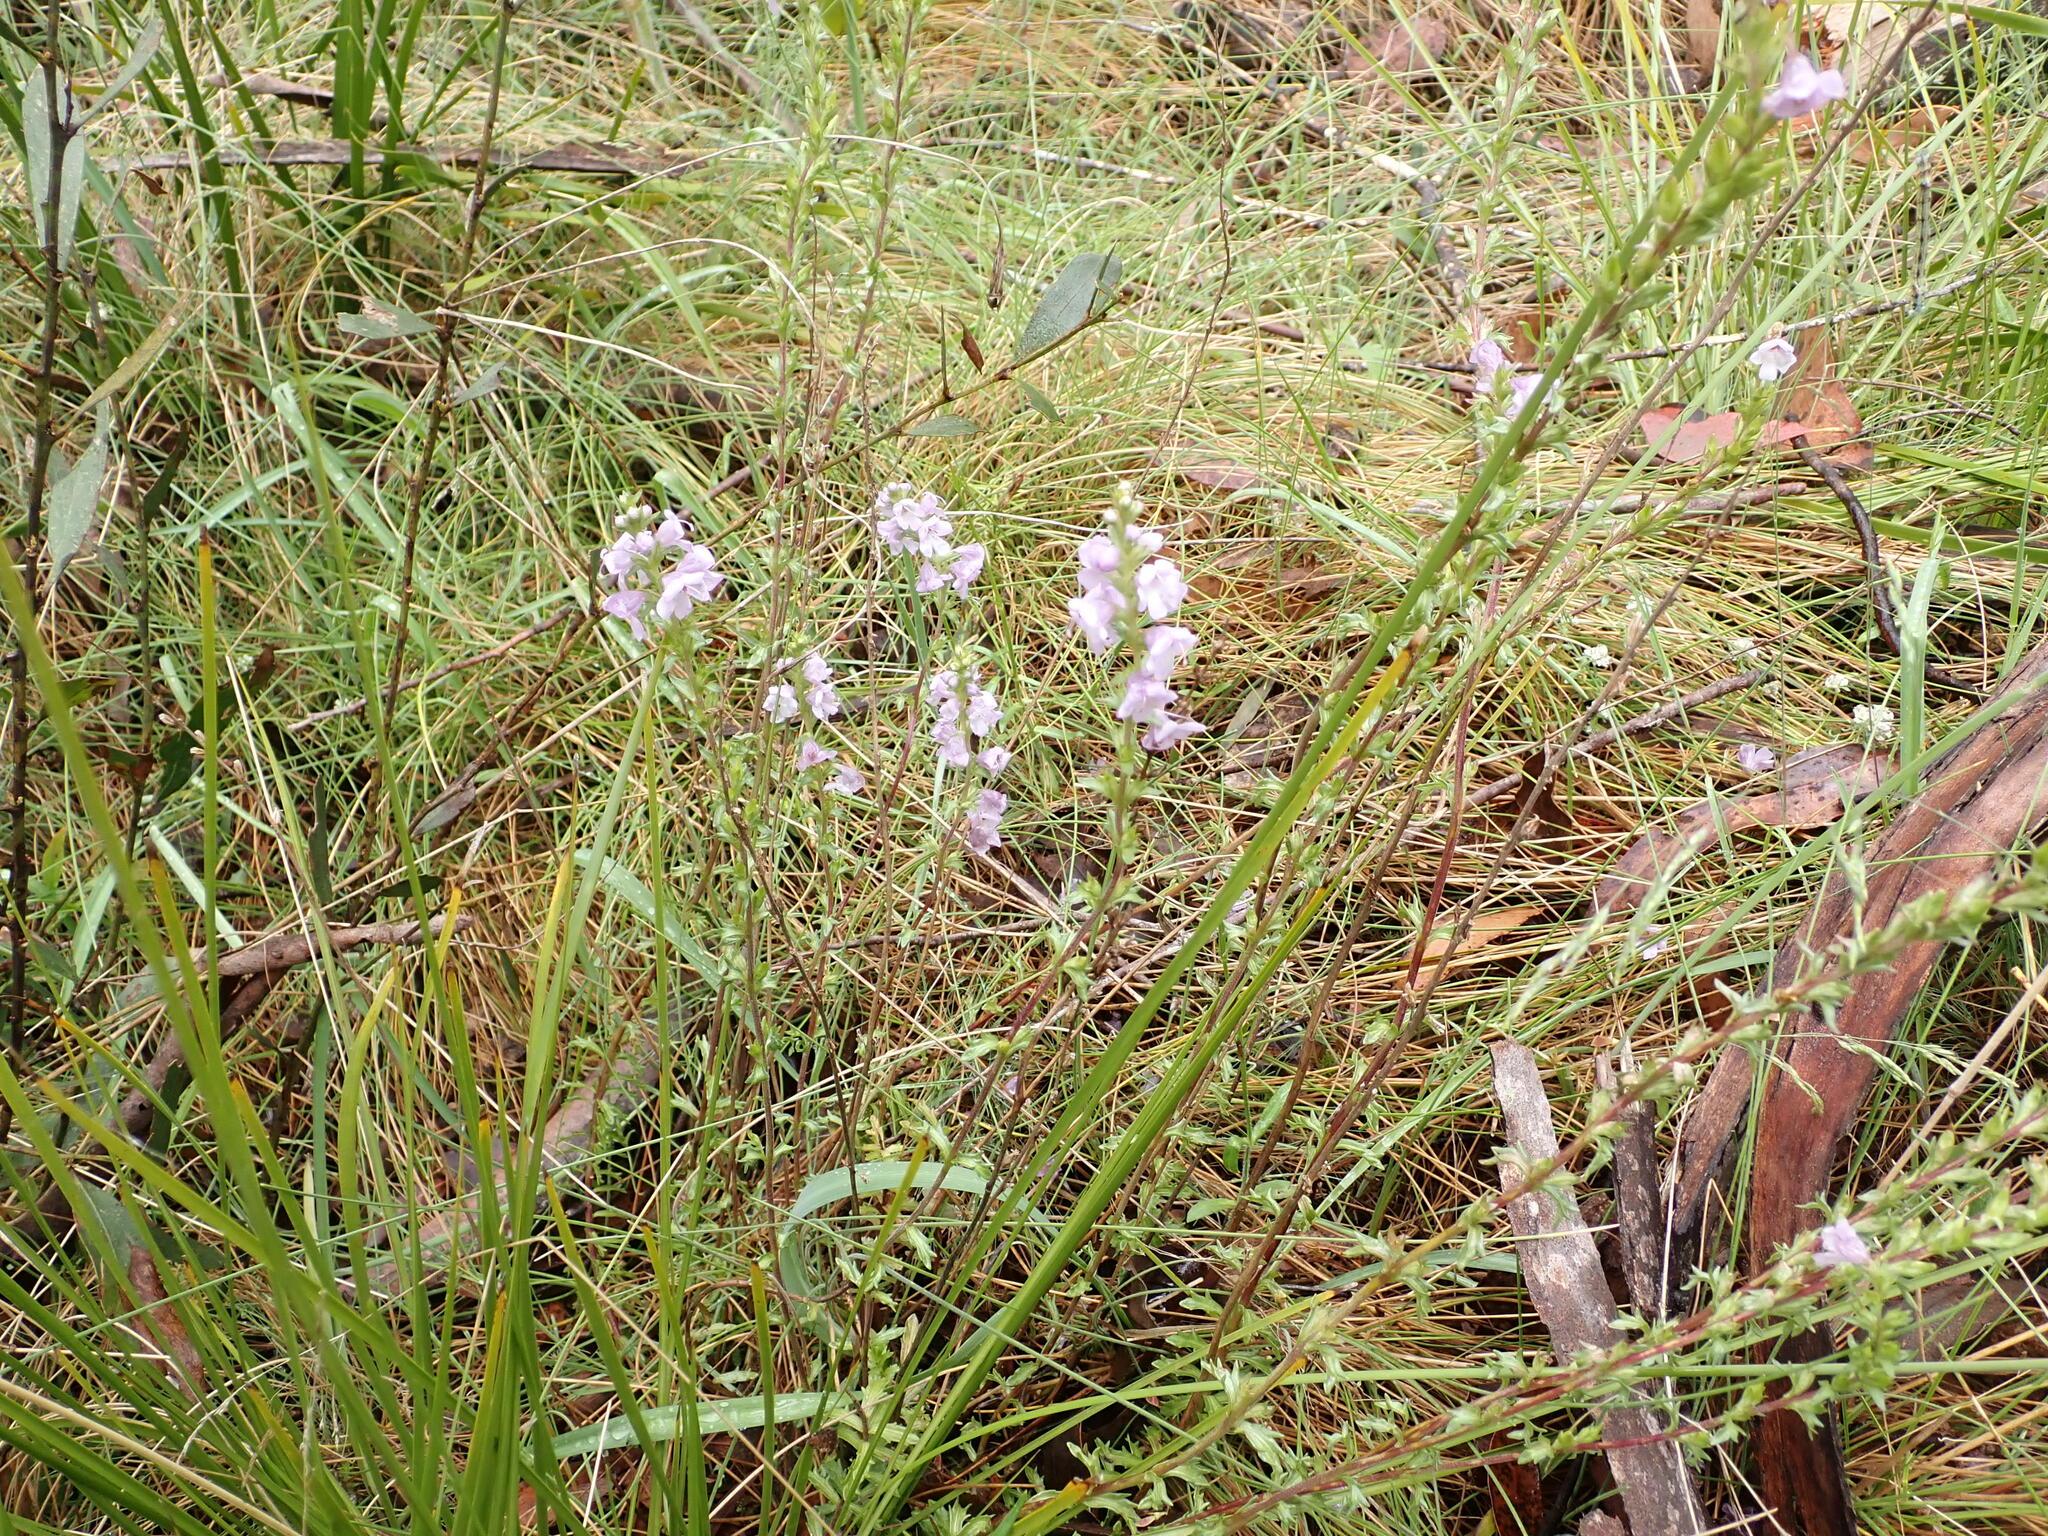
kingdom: Plantae
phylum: Tracheophyta
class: Magnoliopsida
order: Lamiales
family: Orobanchaceae
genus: Euphrasia
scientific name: Euphrasia collina
